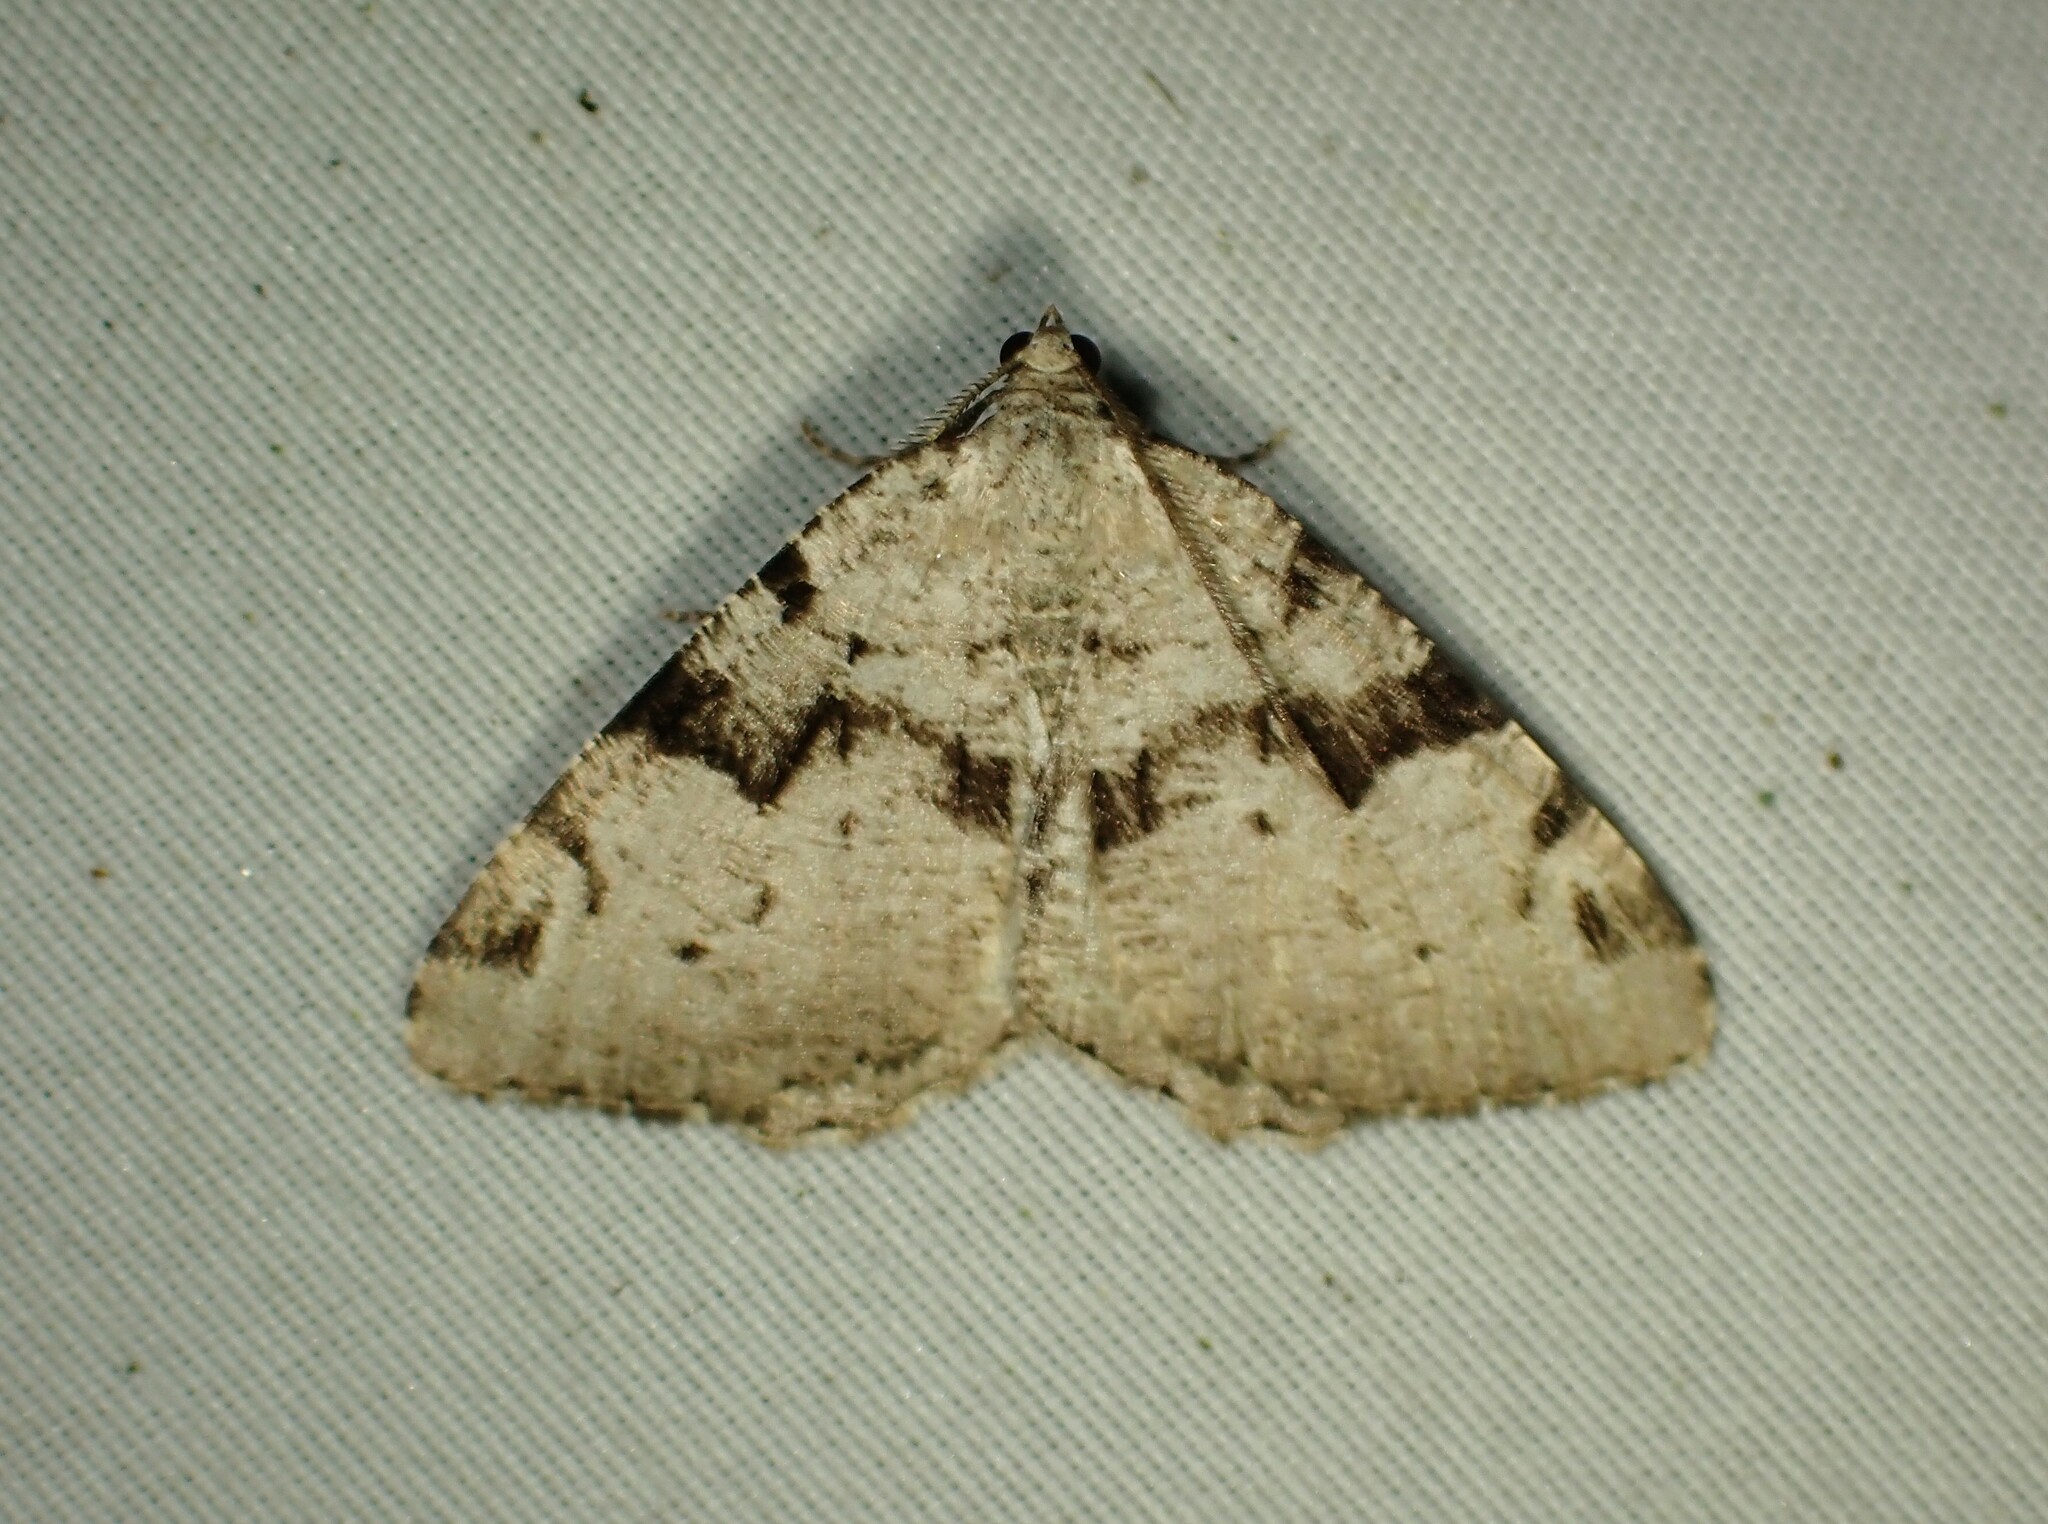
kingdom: Animalia
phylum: Arthropoda
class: Insecta
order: Lepidoptera
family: Geometridae
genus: Macaria
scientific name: Macaria bitactata
